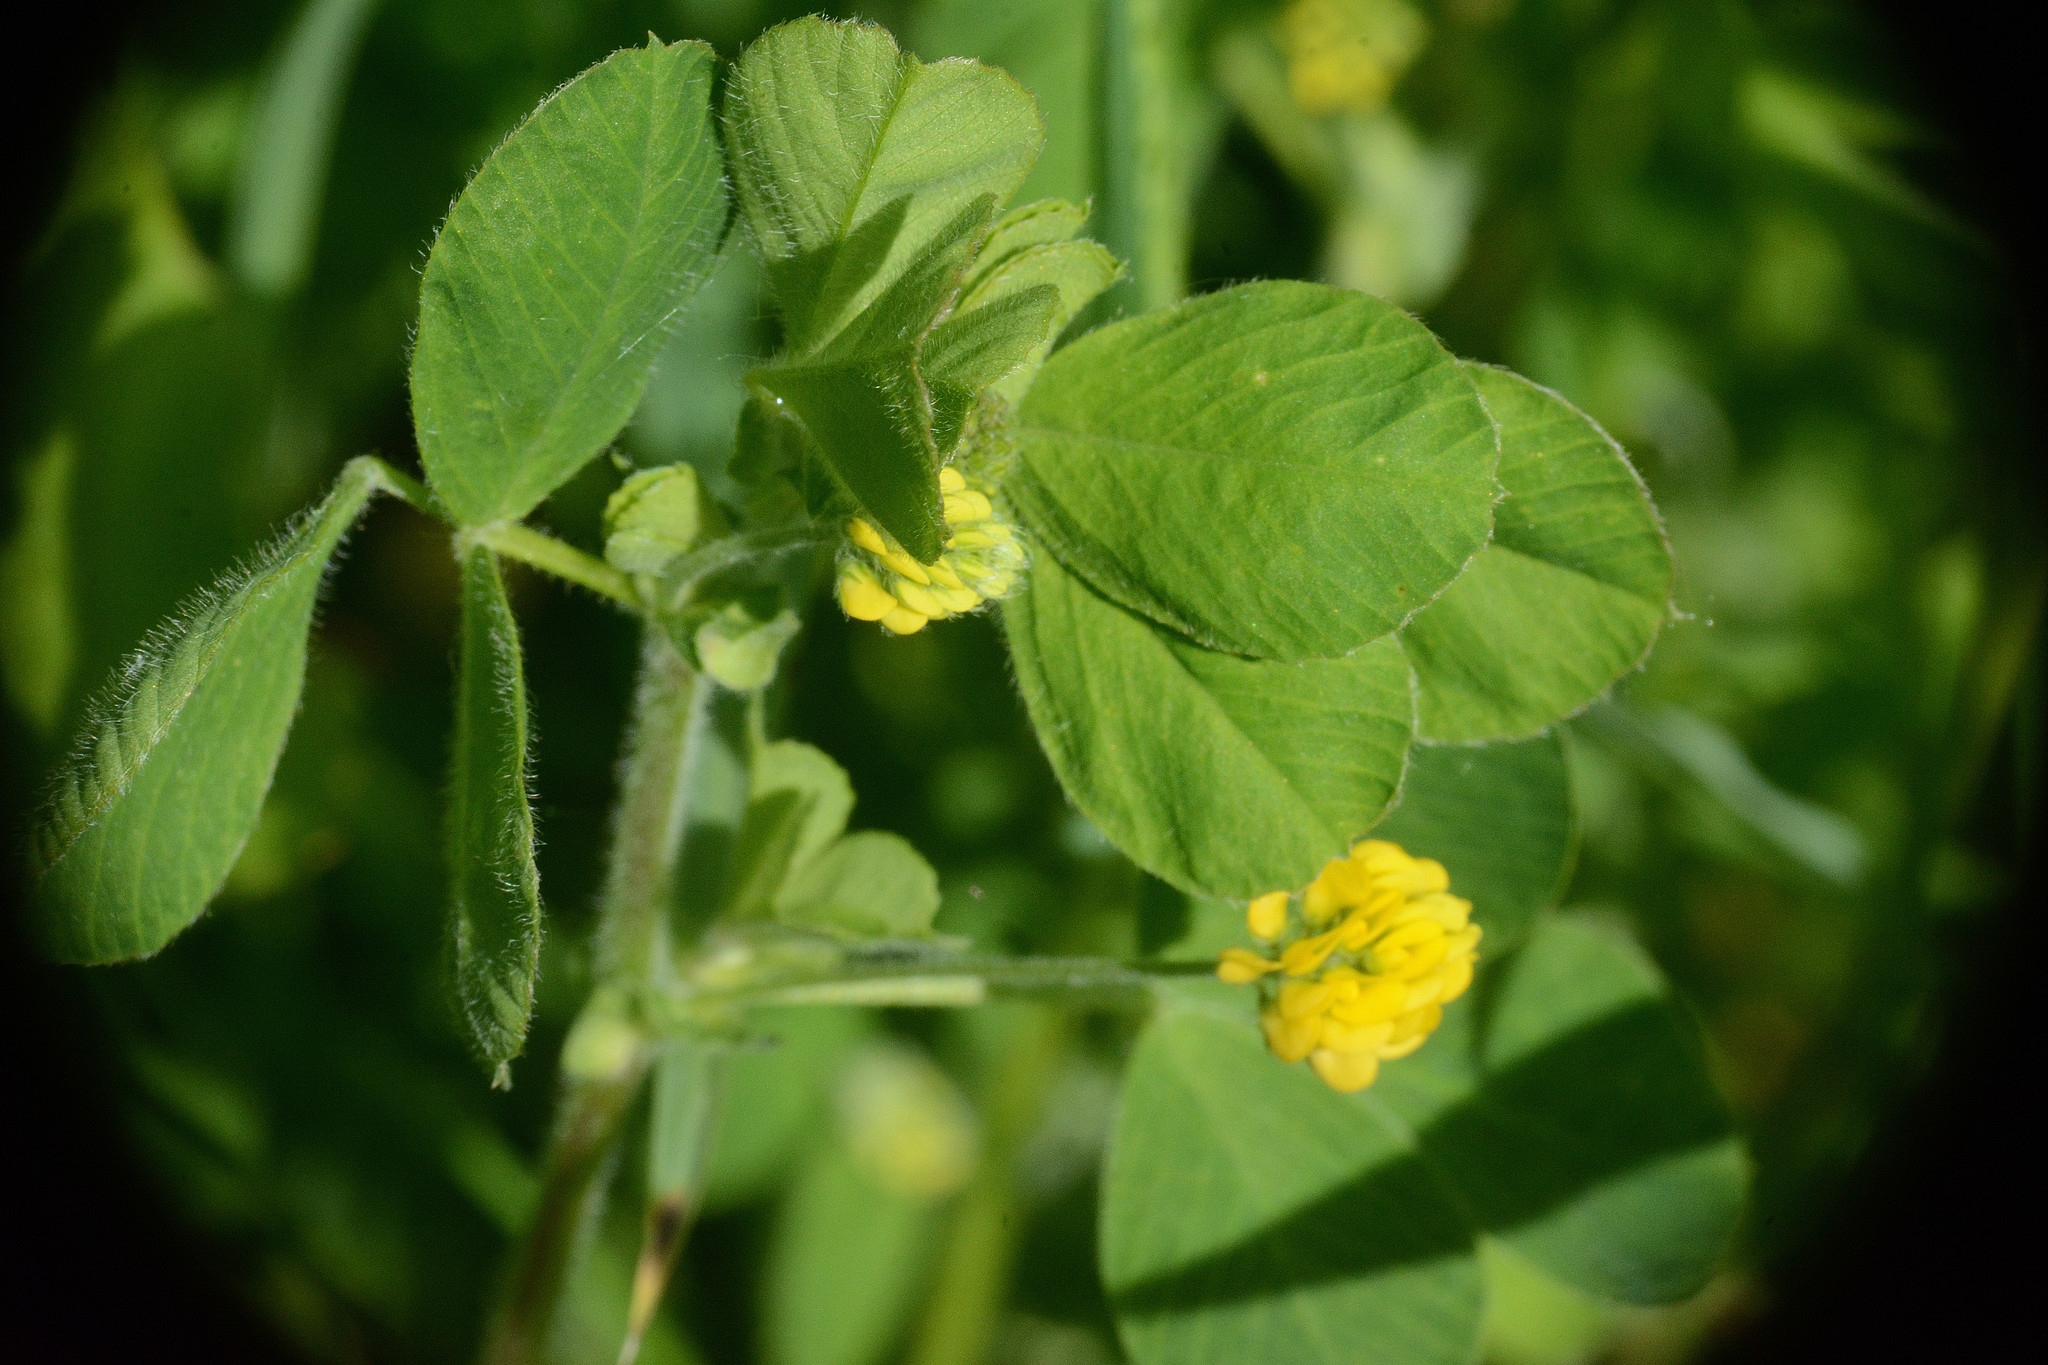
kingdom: Plantae
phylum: Tracheophyta
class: Magnoliopsida
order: Fabales
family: Fabaceae
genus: Medicago
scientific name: Medicago lupulina
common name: Black medick
